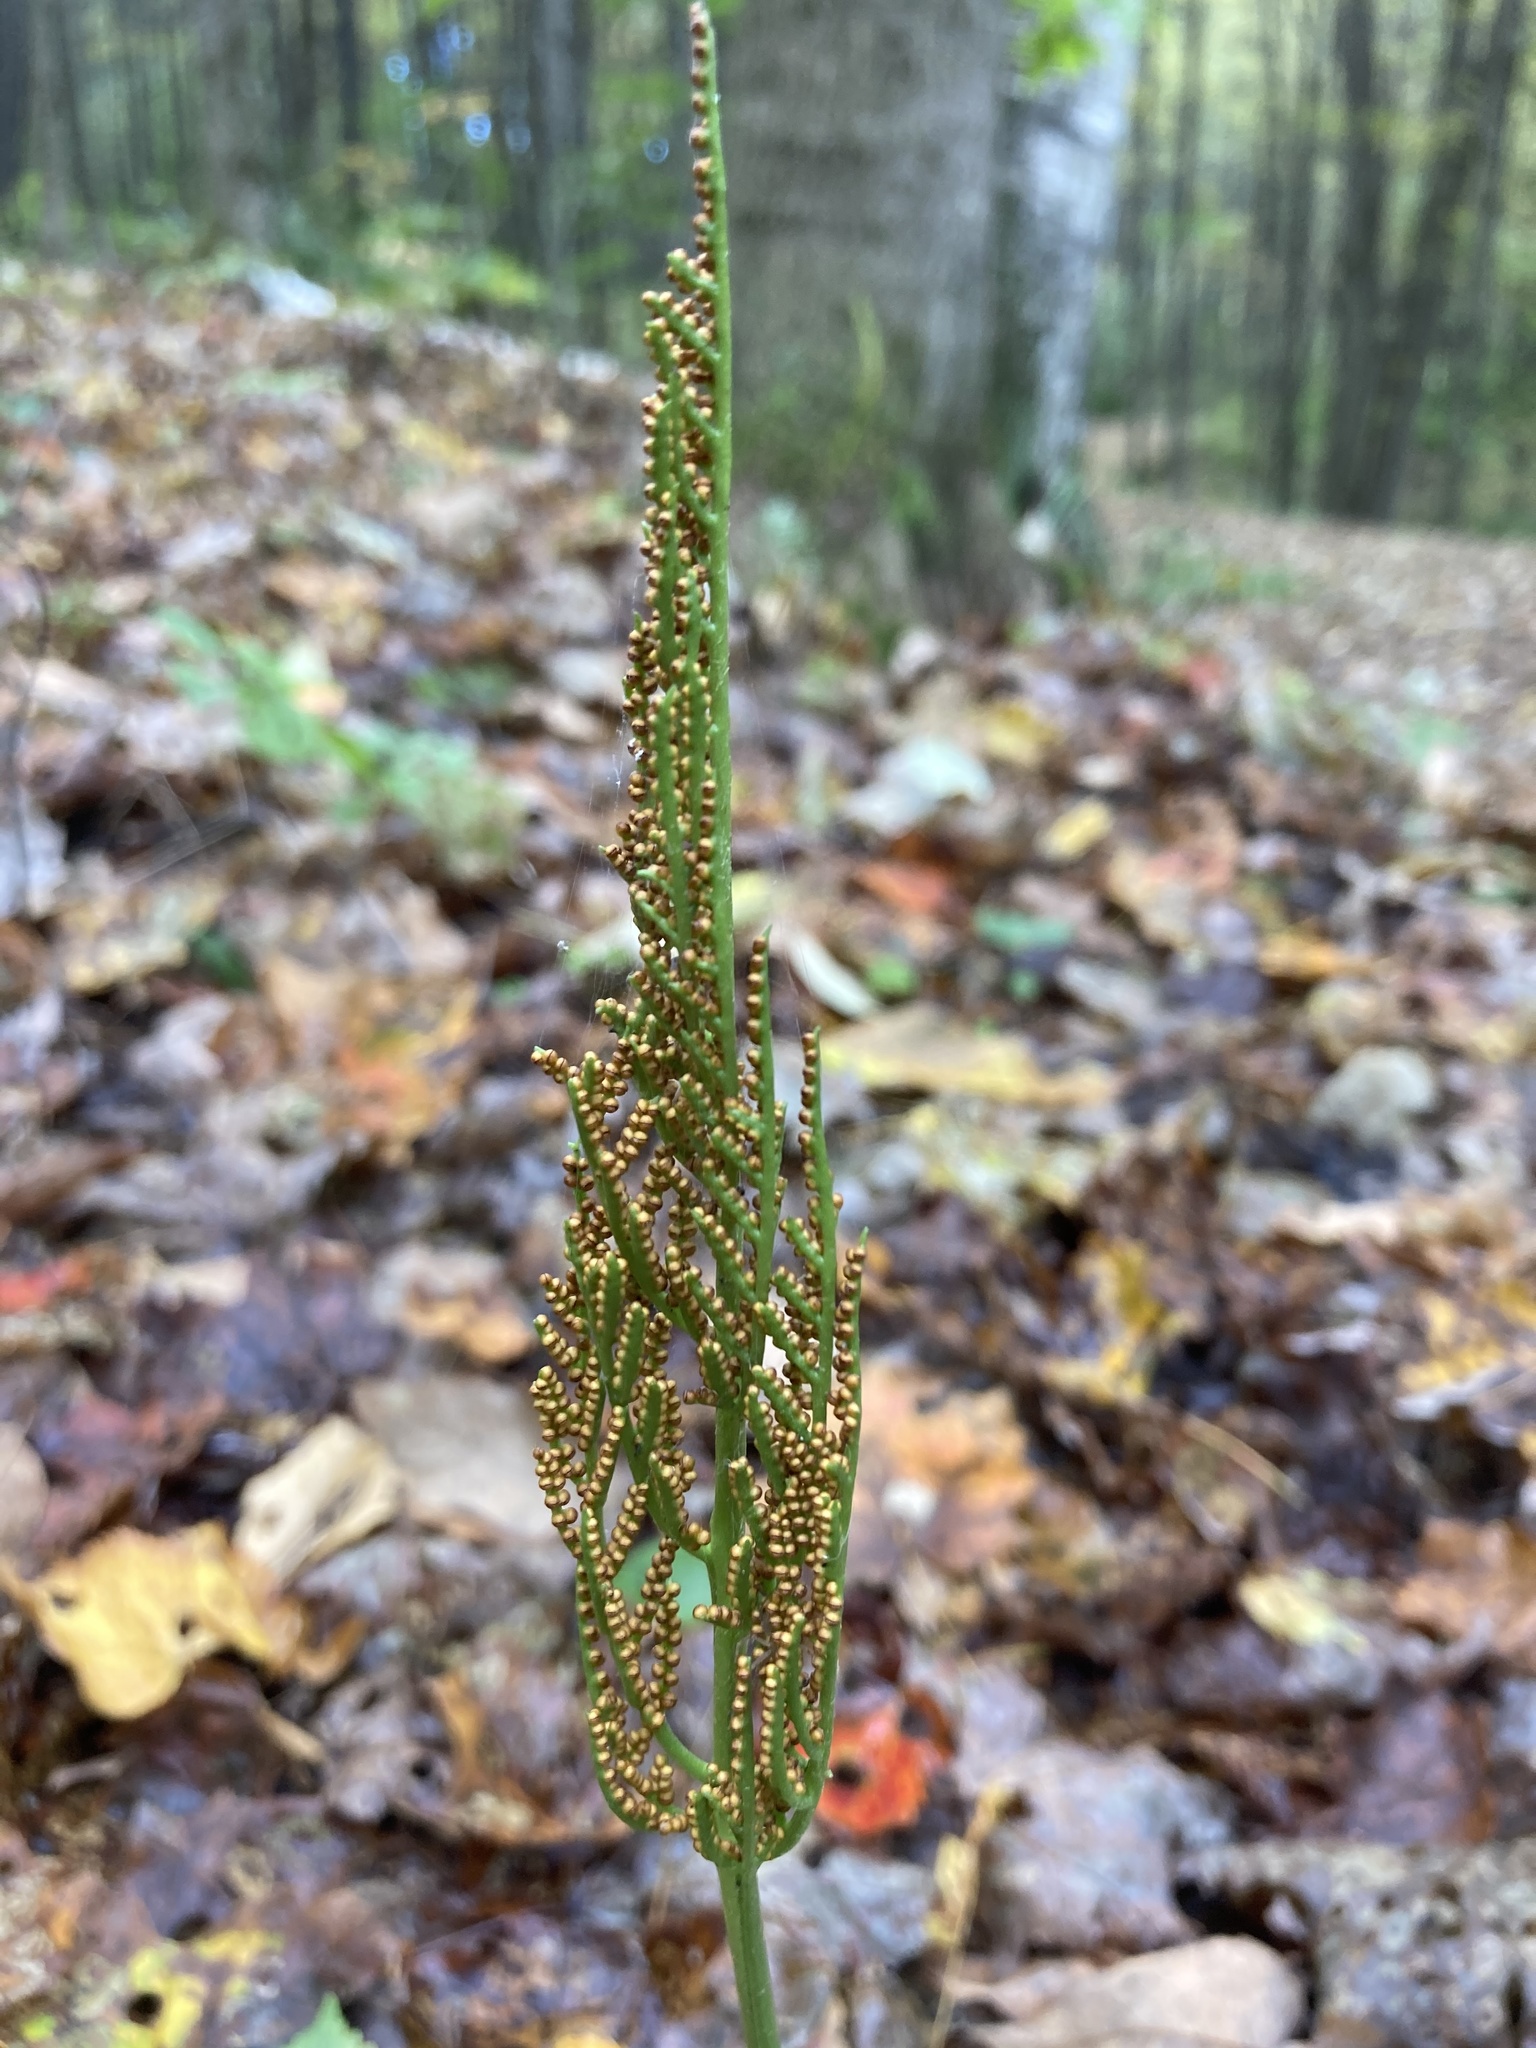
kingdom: Plantae
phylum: Tracheophyta
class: Polypodiopsida
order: Ophioglossales
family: Ophioglossaceae
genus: Sceptridium
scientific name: Sceptridium dissectum
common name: Cut-leaved grapefern
